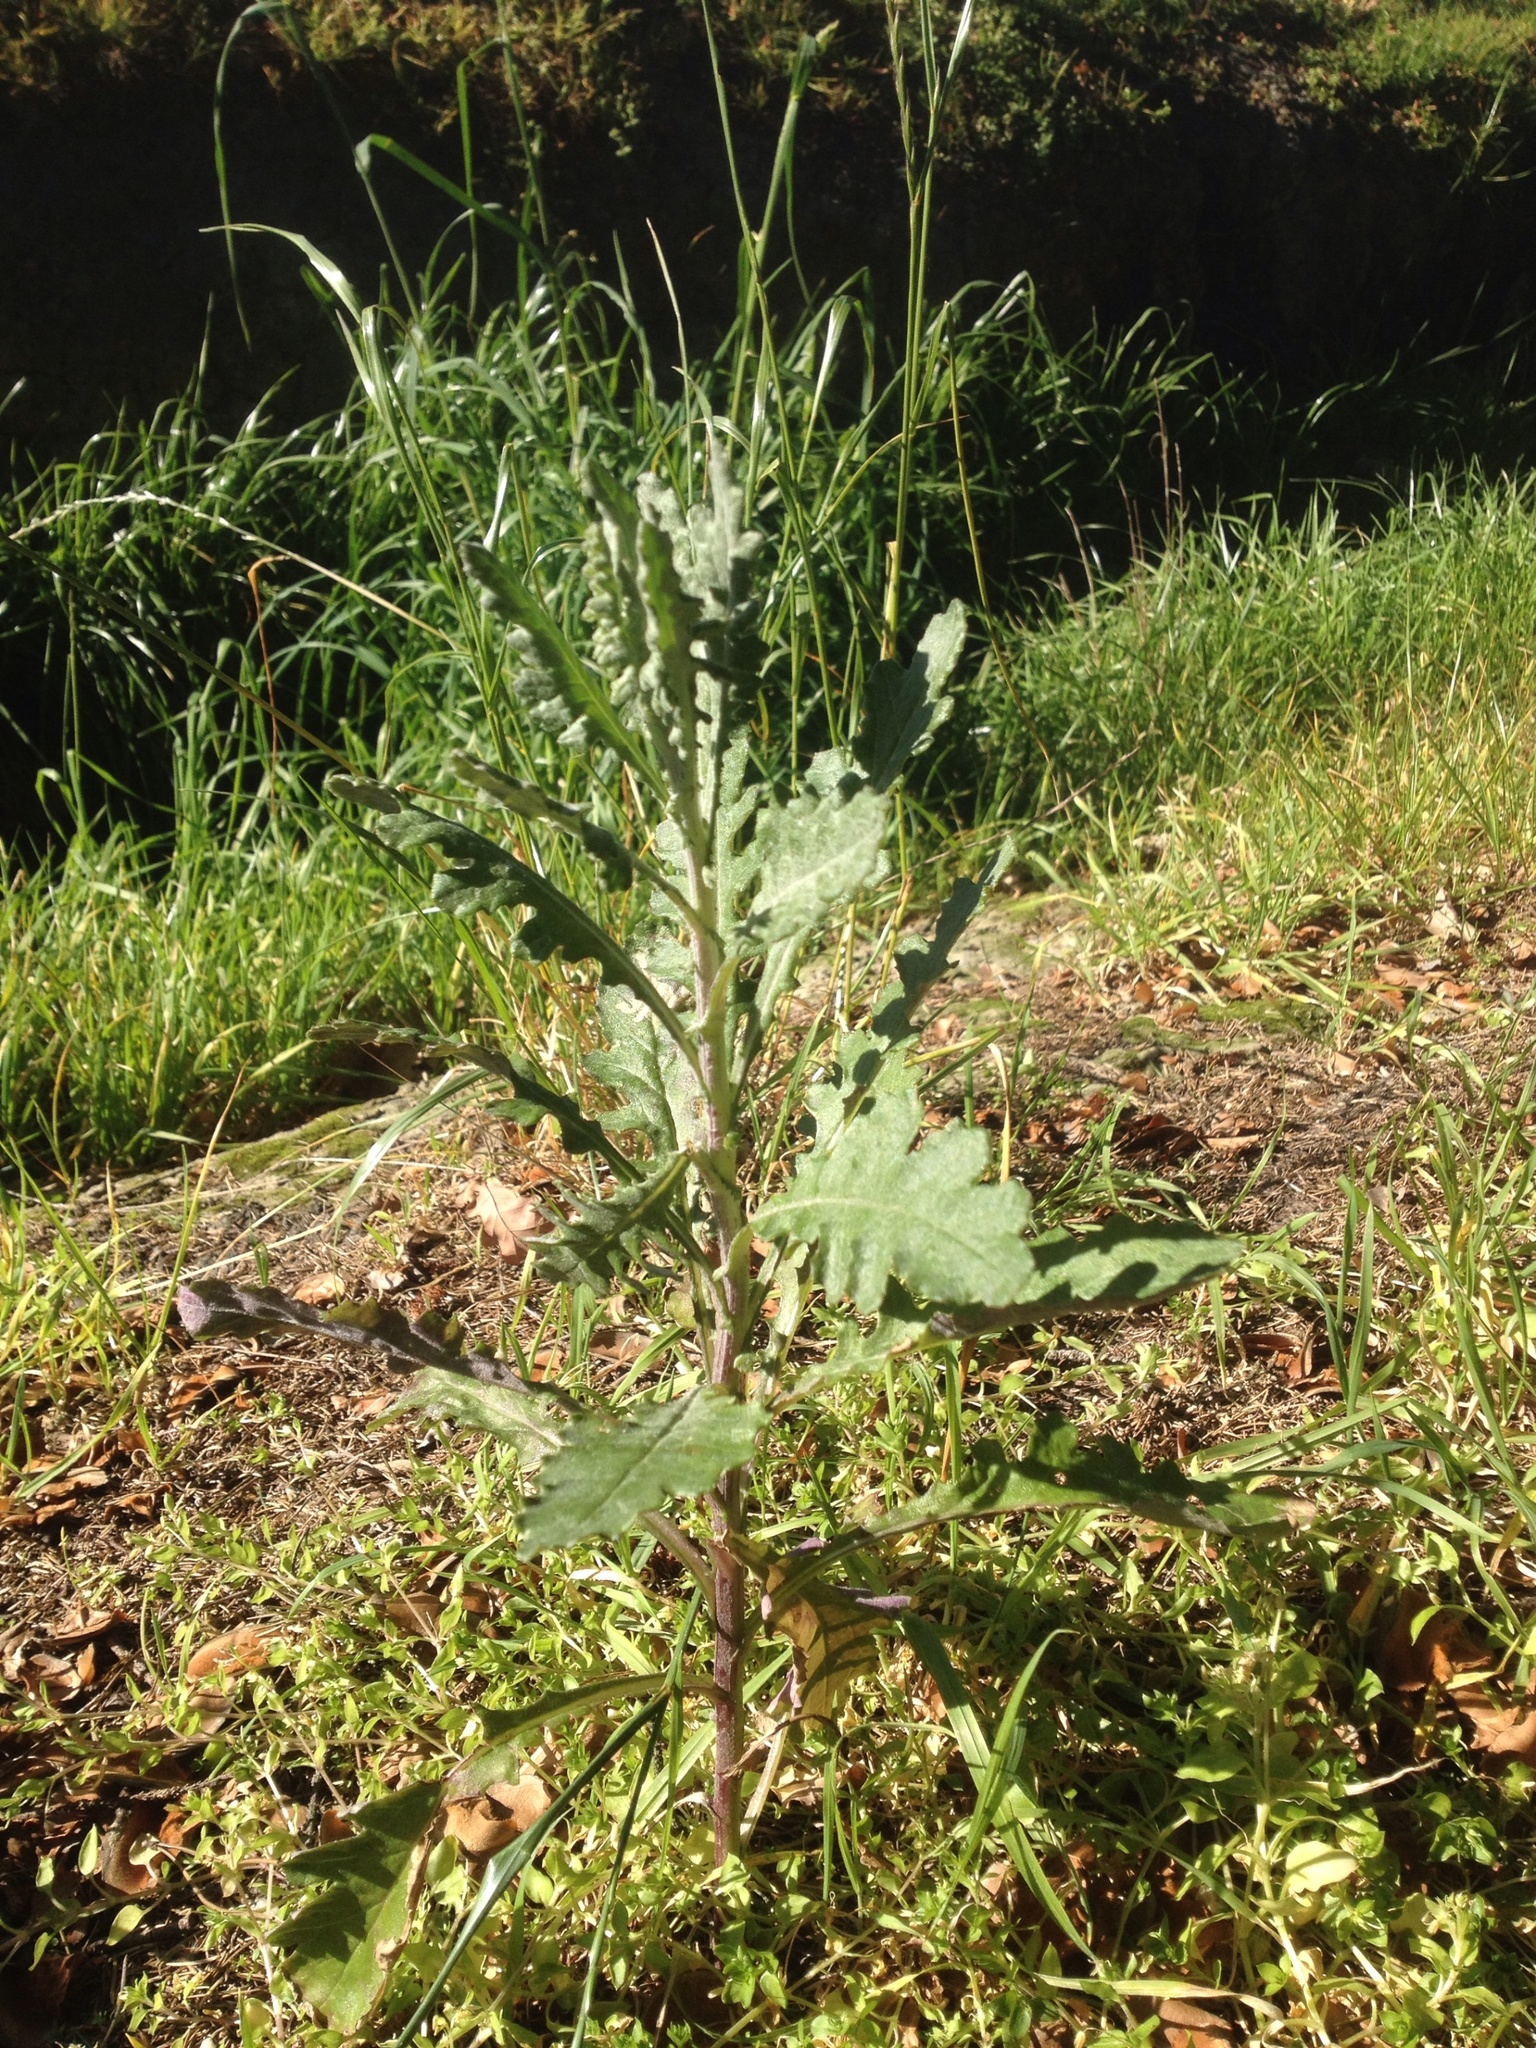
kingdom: Plantae
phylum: Tracheophyta
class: Magnoliopsida
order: Asterales
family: Asteraceae
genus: Senecio
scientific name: Senecio glomeratus
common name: Cutleaf burnweed
